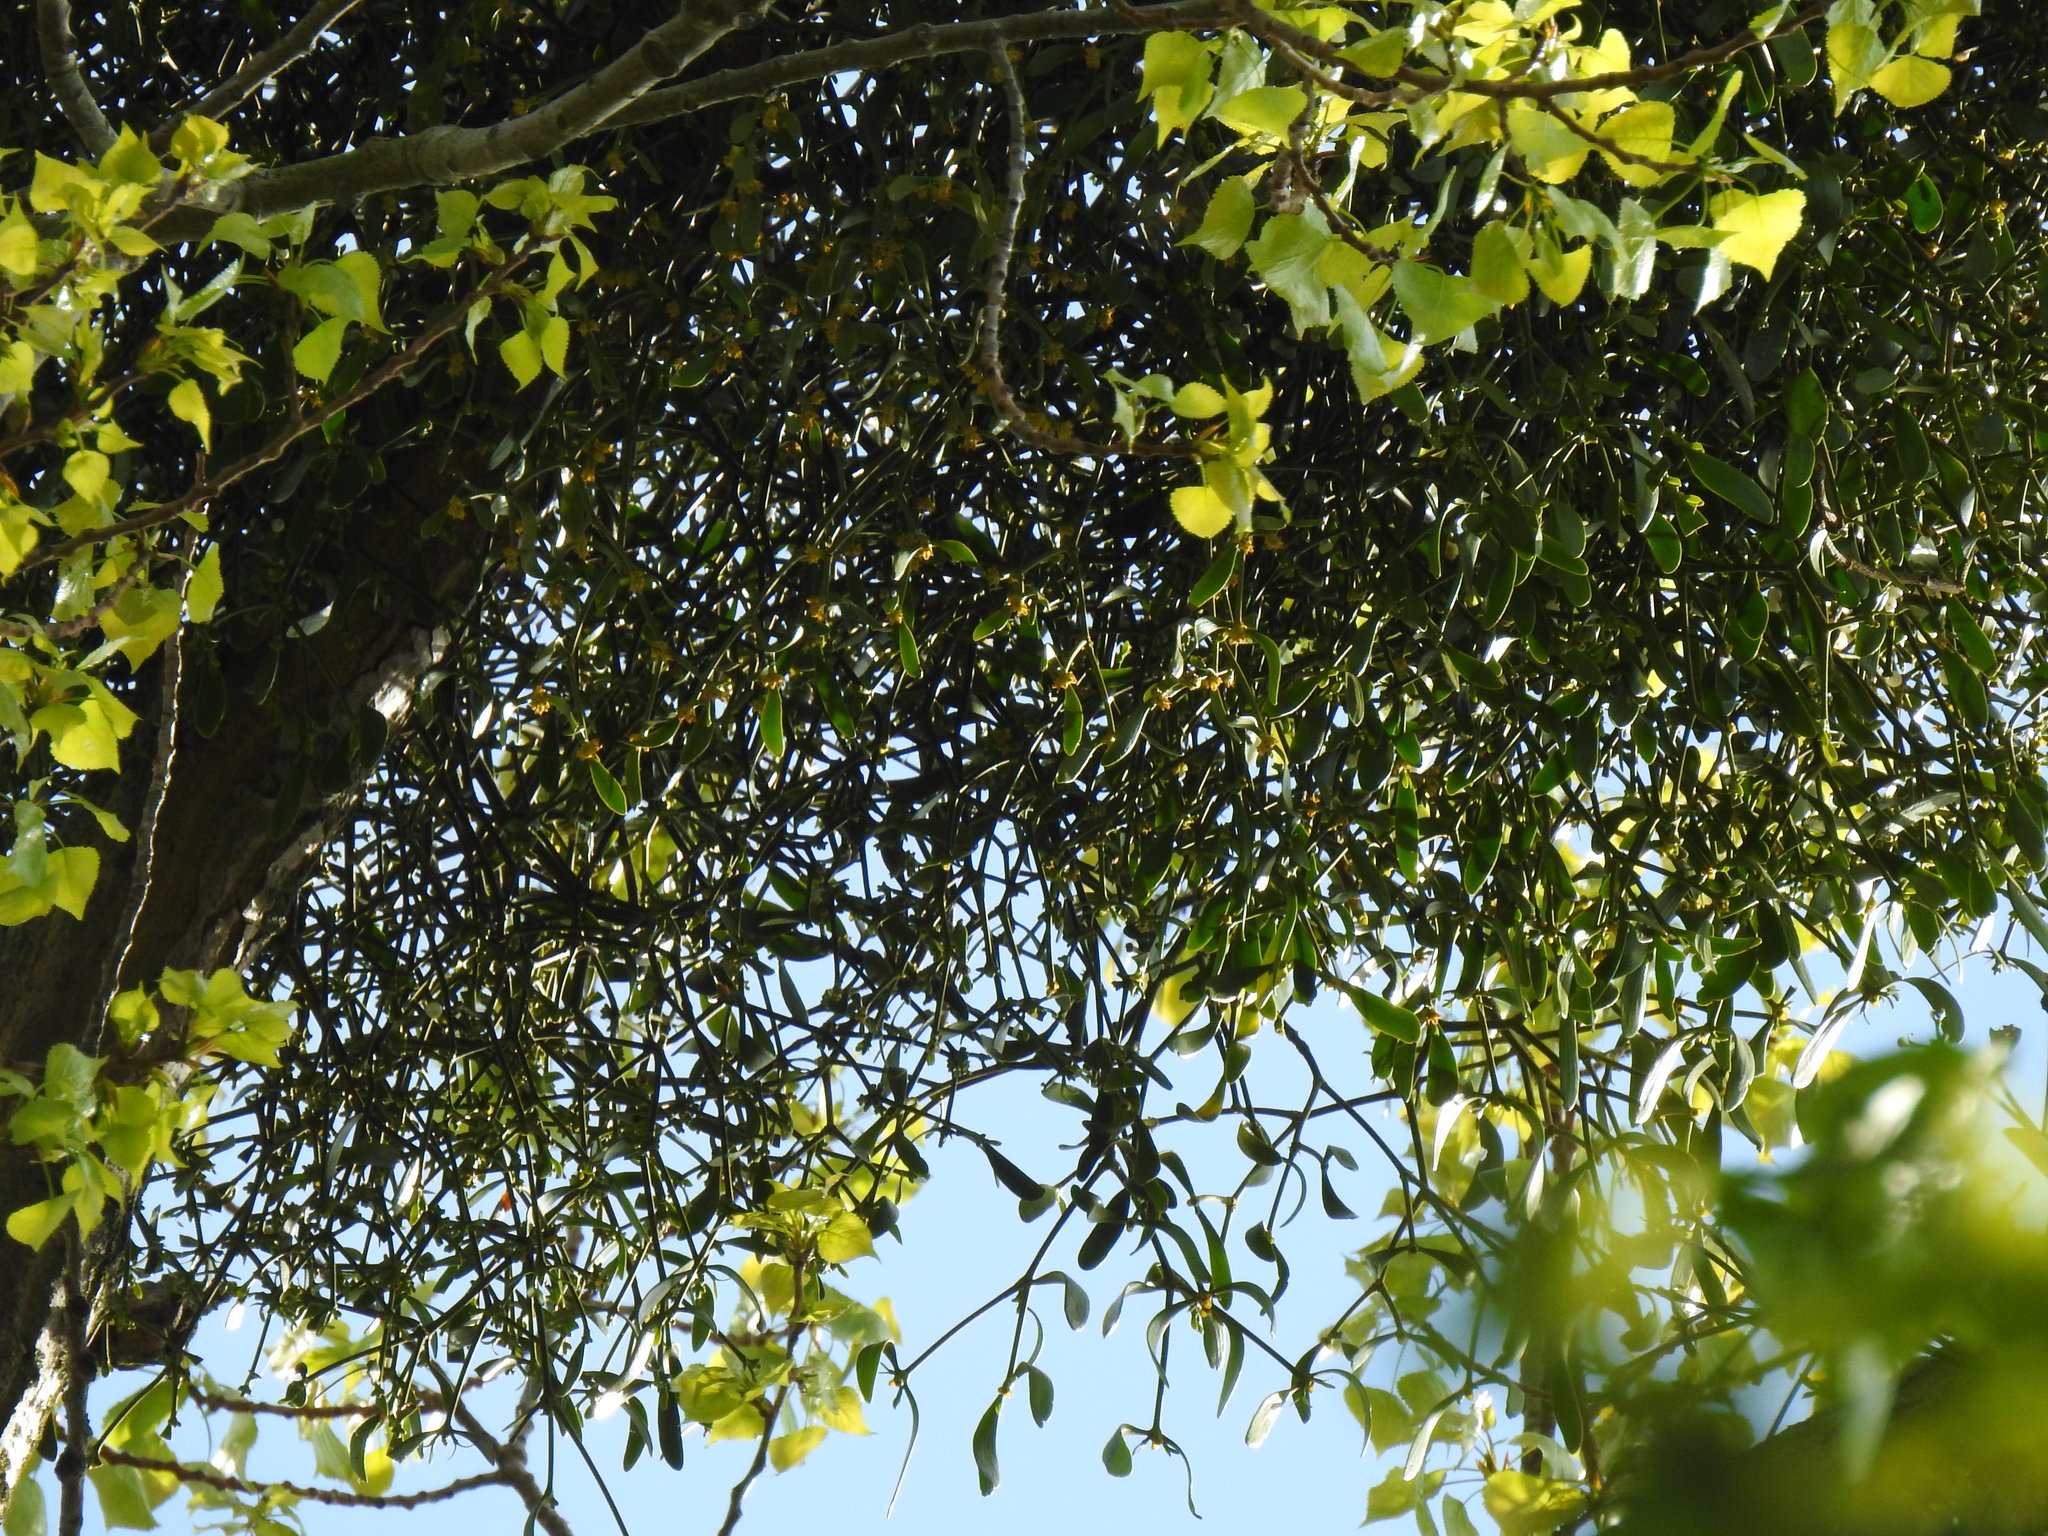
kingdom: Plantae
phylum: Tracheophyta
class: Magnoliopsida
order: Santalales
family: Viscaceae
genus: Viscum
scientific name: Viscum album
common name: Mistletoe
